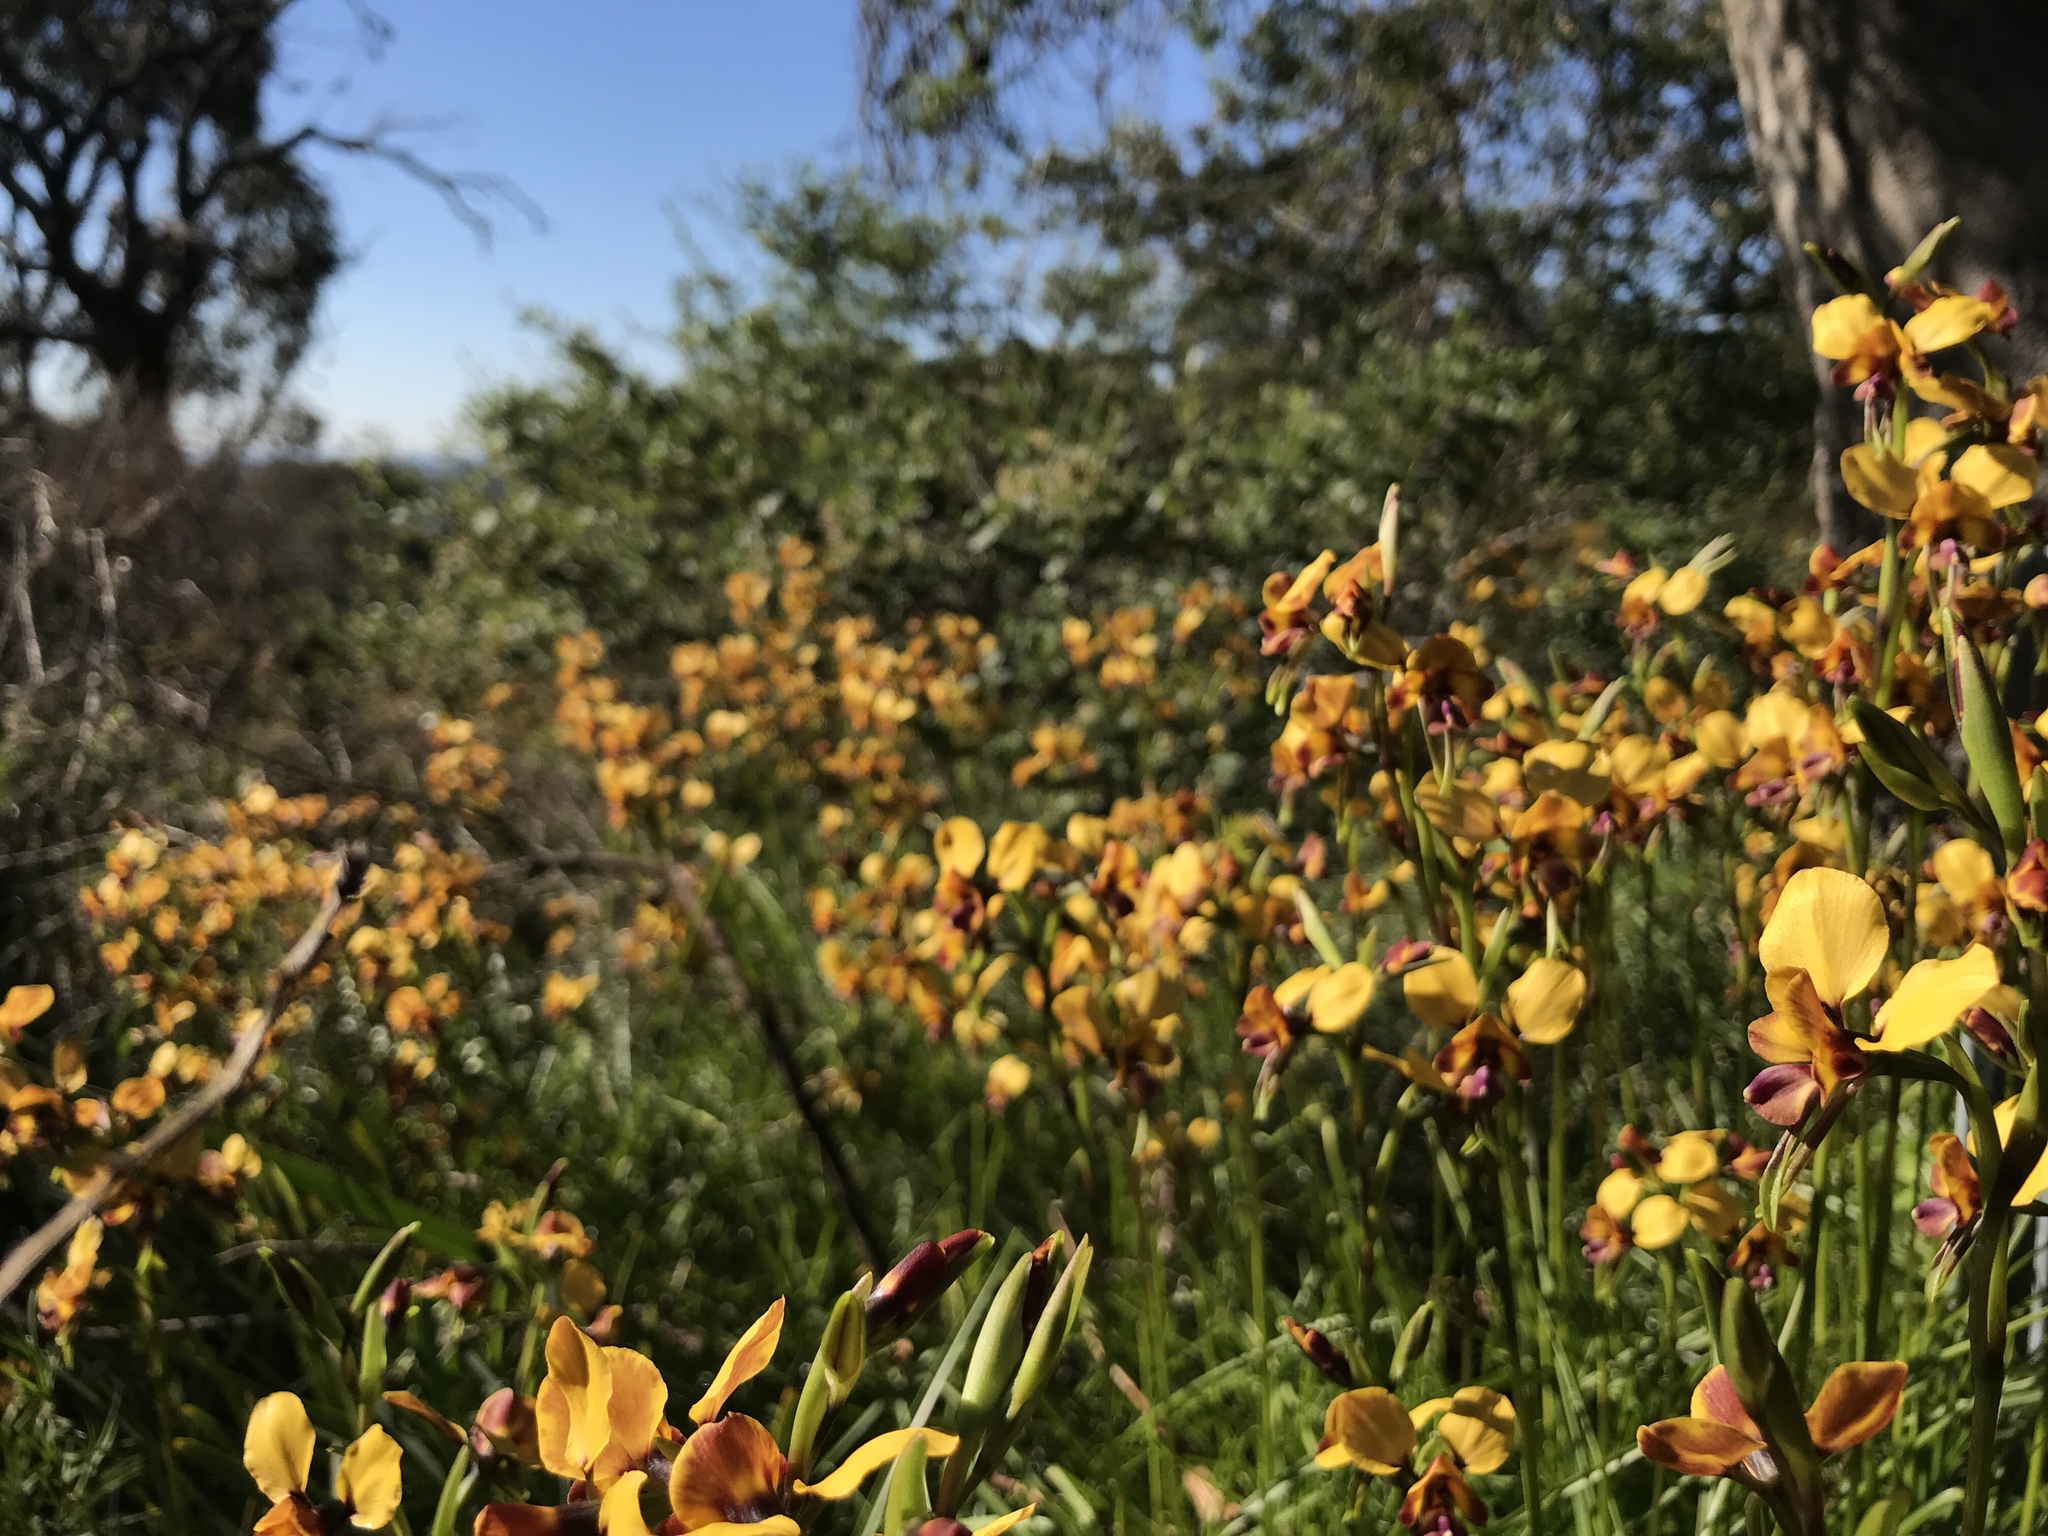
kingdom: Plantae
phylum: Tracheophyta
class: Liliopsida
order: Asparagales
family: Orchidaceae
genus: Diuris
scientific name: Diuris magnifica
